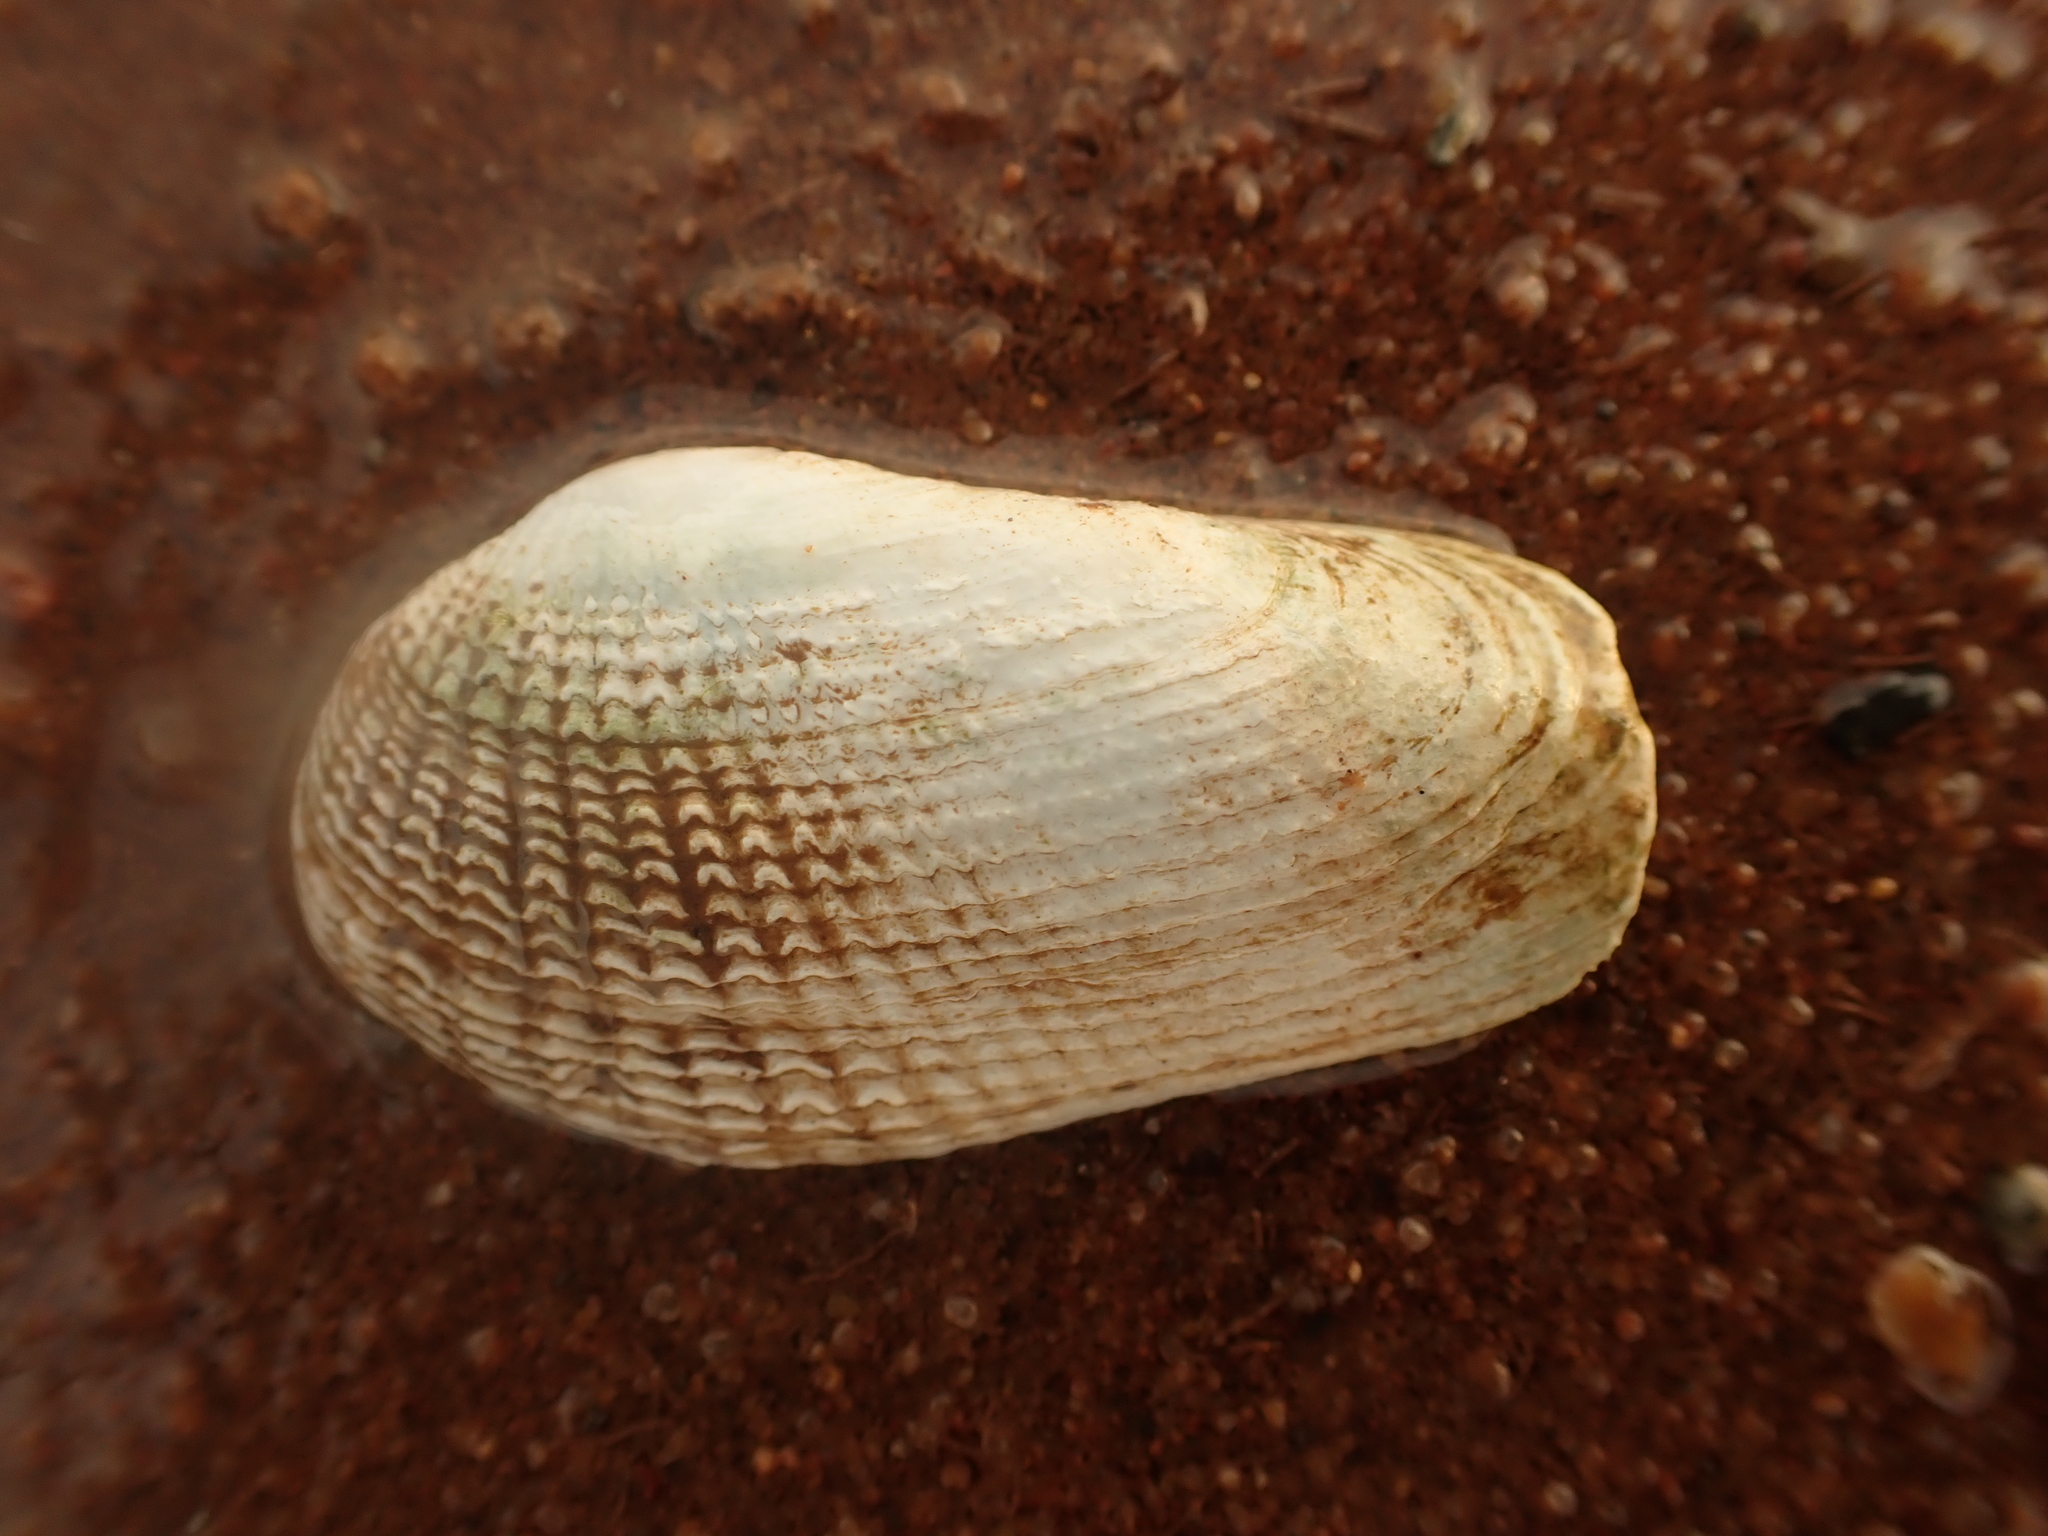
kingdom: Animalia
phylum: Mollusca
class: Bivalvia
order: Venerida
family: Veneridae
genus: Petricolaria
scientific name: Petricolaria pholadiformis
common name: American piddock
